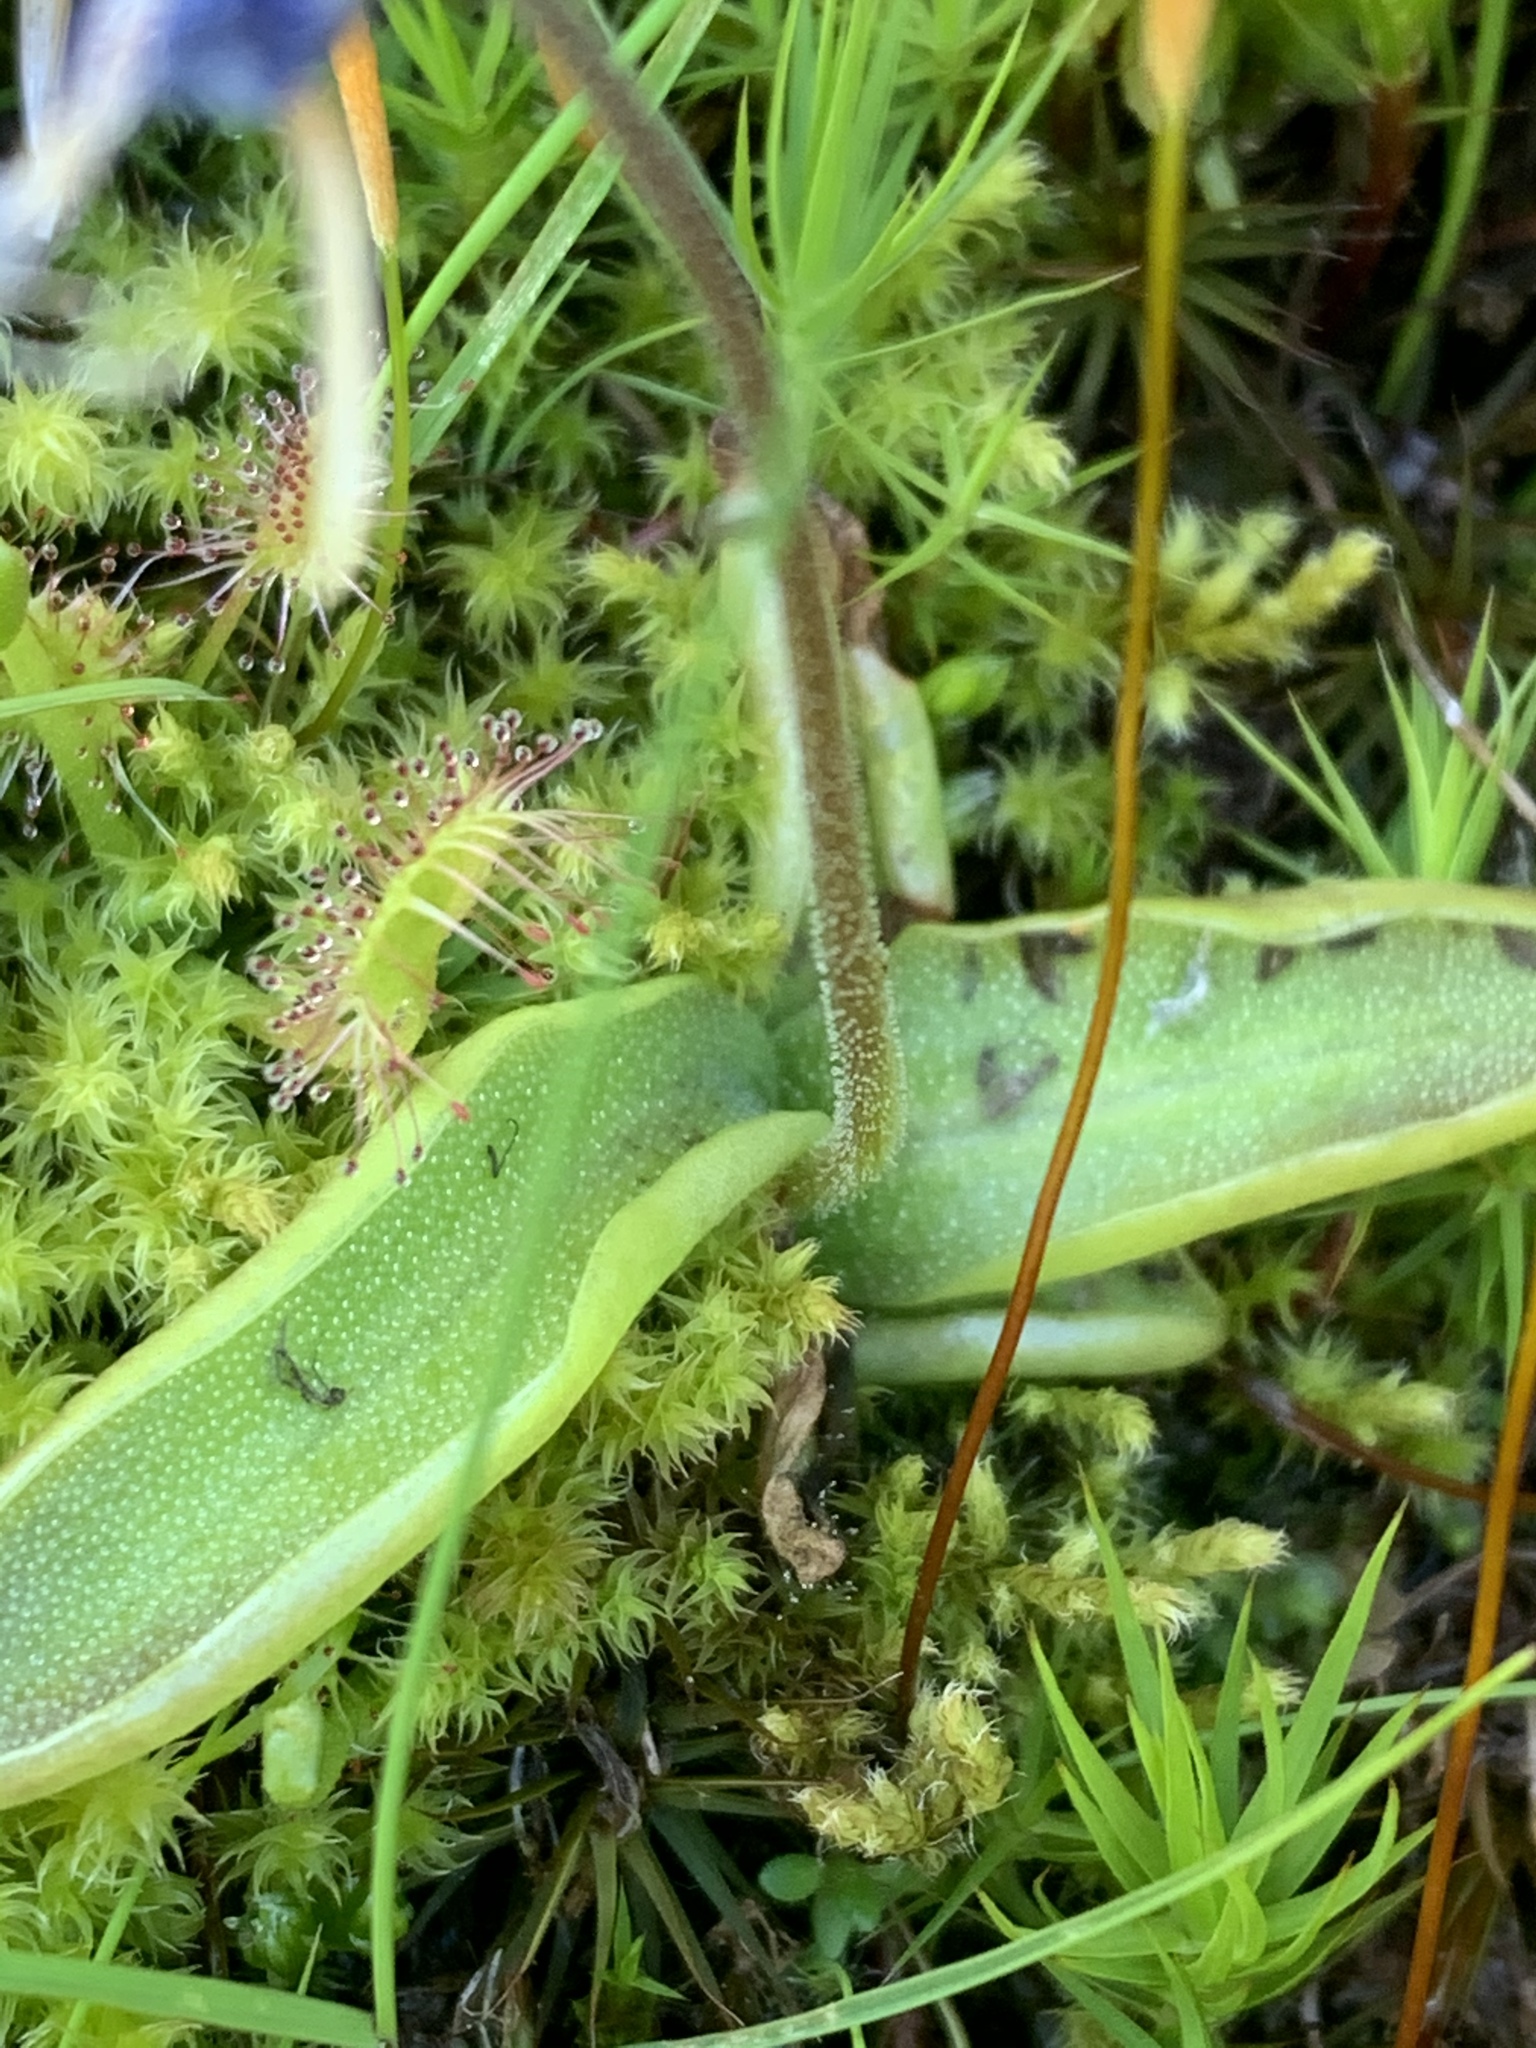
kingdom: Plantae
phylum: Tracheophyta
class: Magnoliopsida
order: Lamiales
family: Lentibulariaceae
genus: Pinguicula
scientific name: Pinguicula vulgaris
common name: Common butterwort
